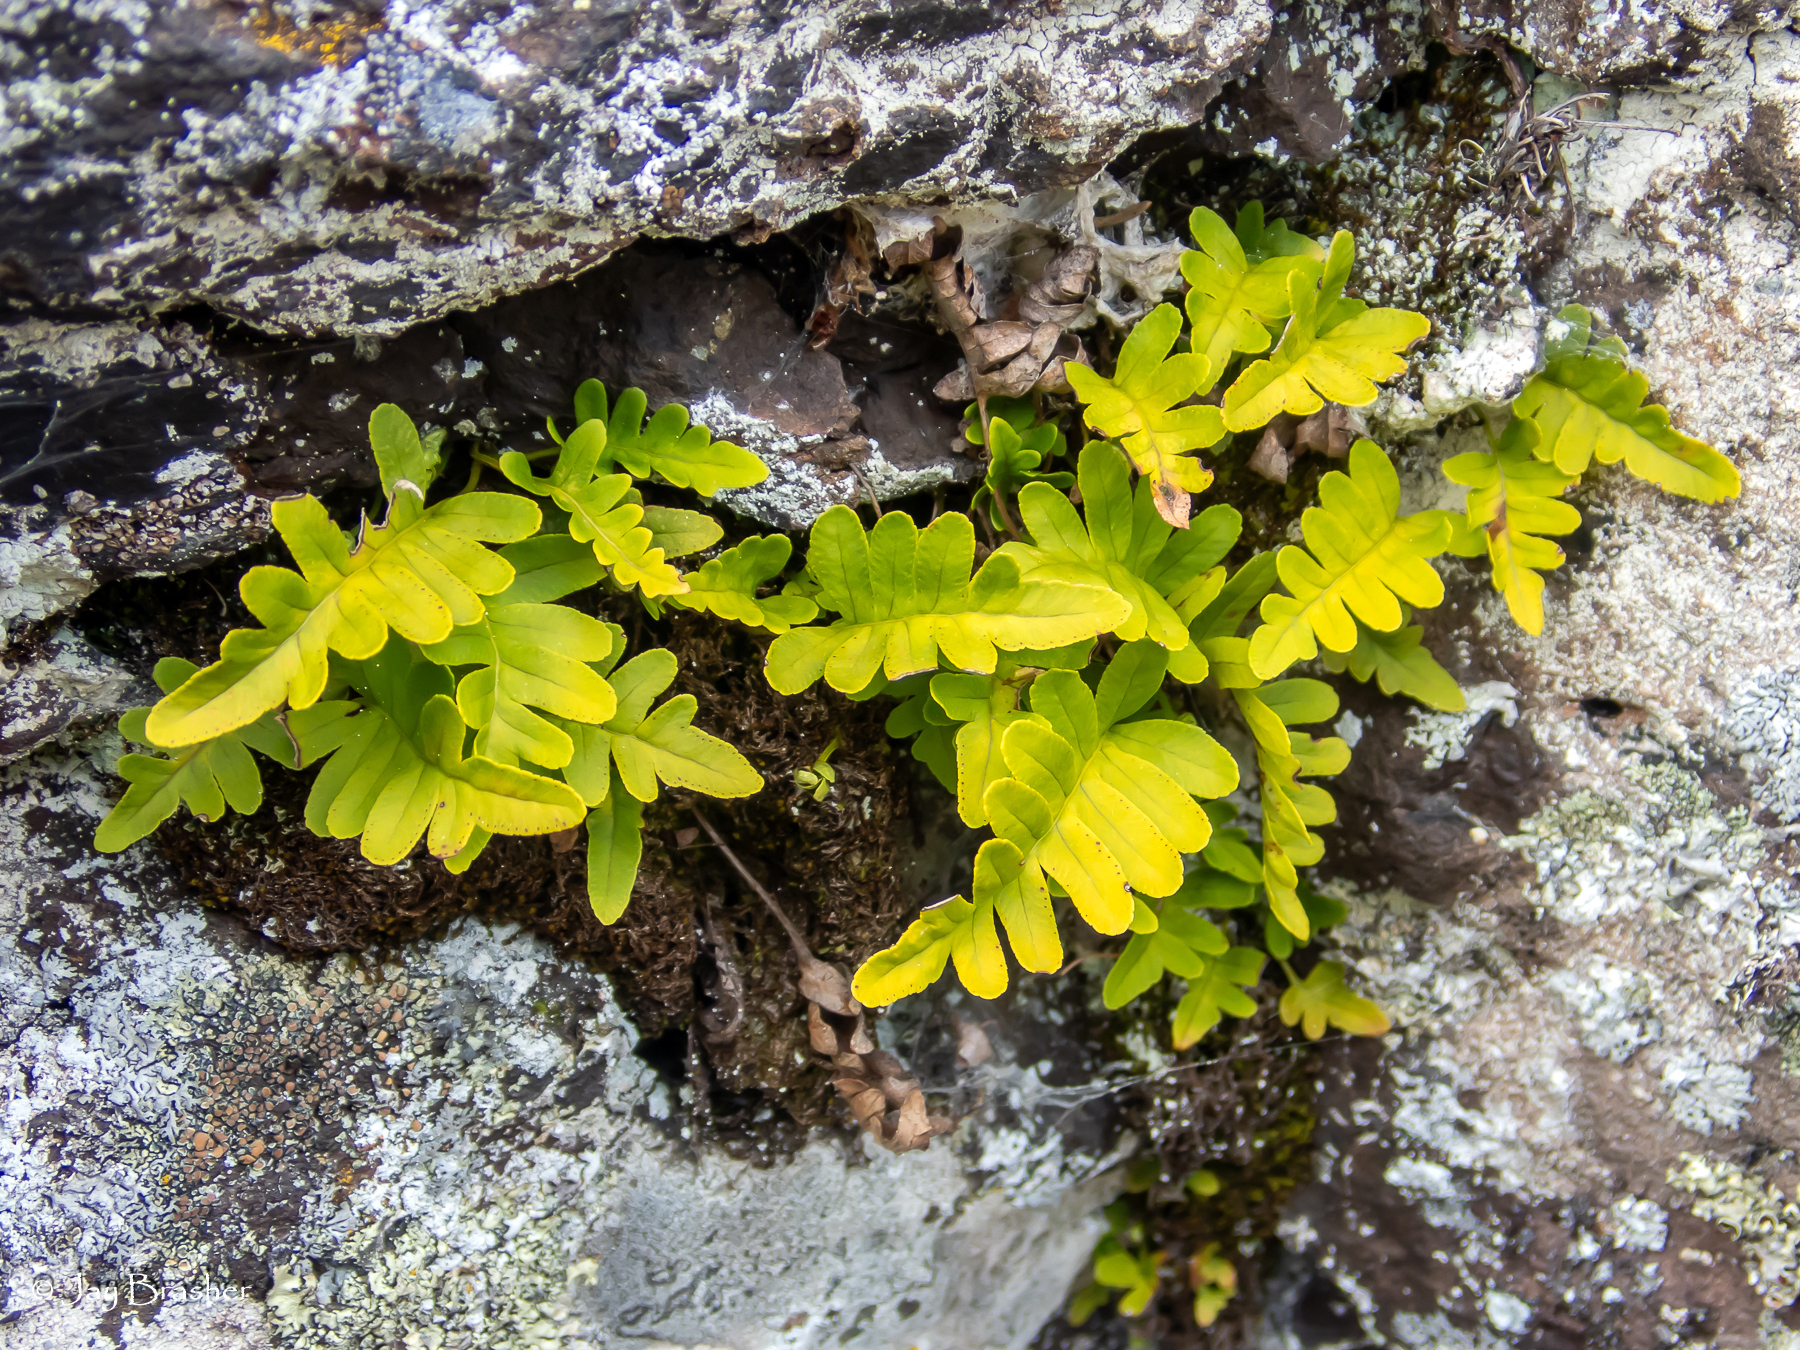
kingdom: Plantae
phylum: Tracheophyta
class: Polypodiopsida
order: Polypodiales
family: Polypodiaceae
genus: Polypodium
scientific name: Polypodium virginianum
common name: American wall fern
